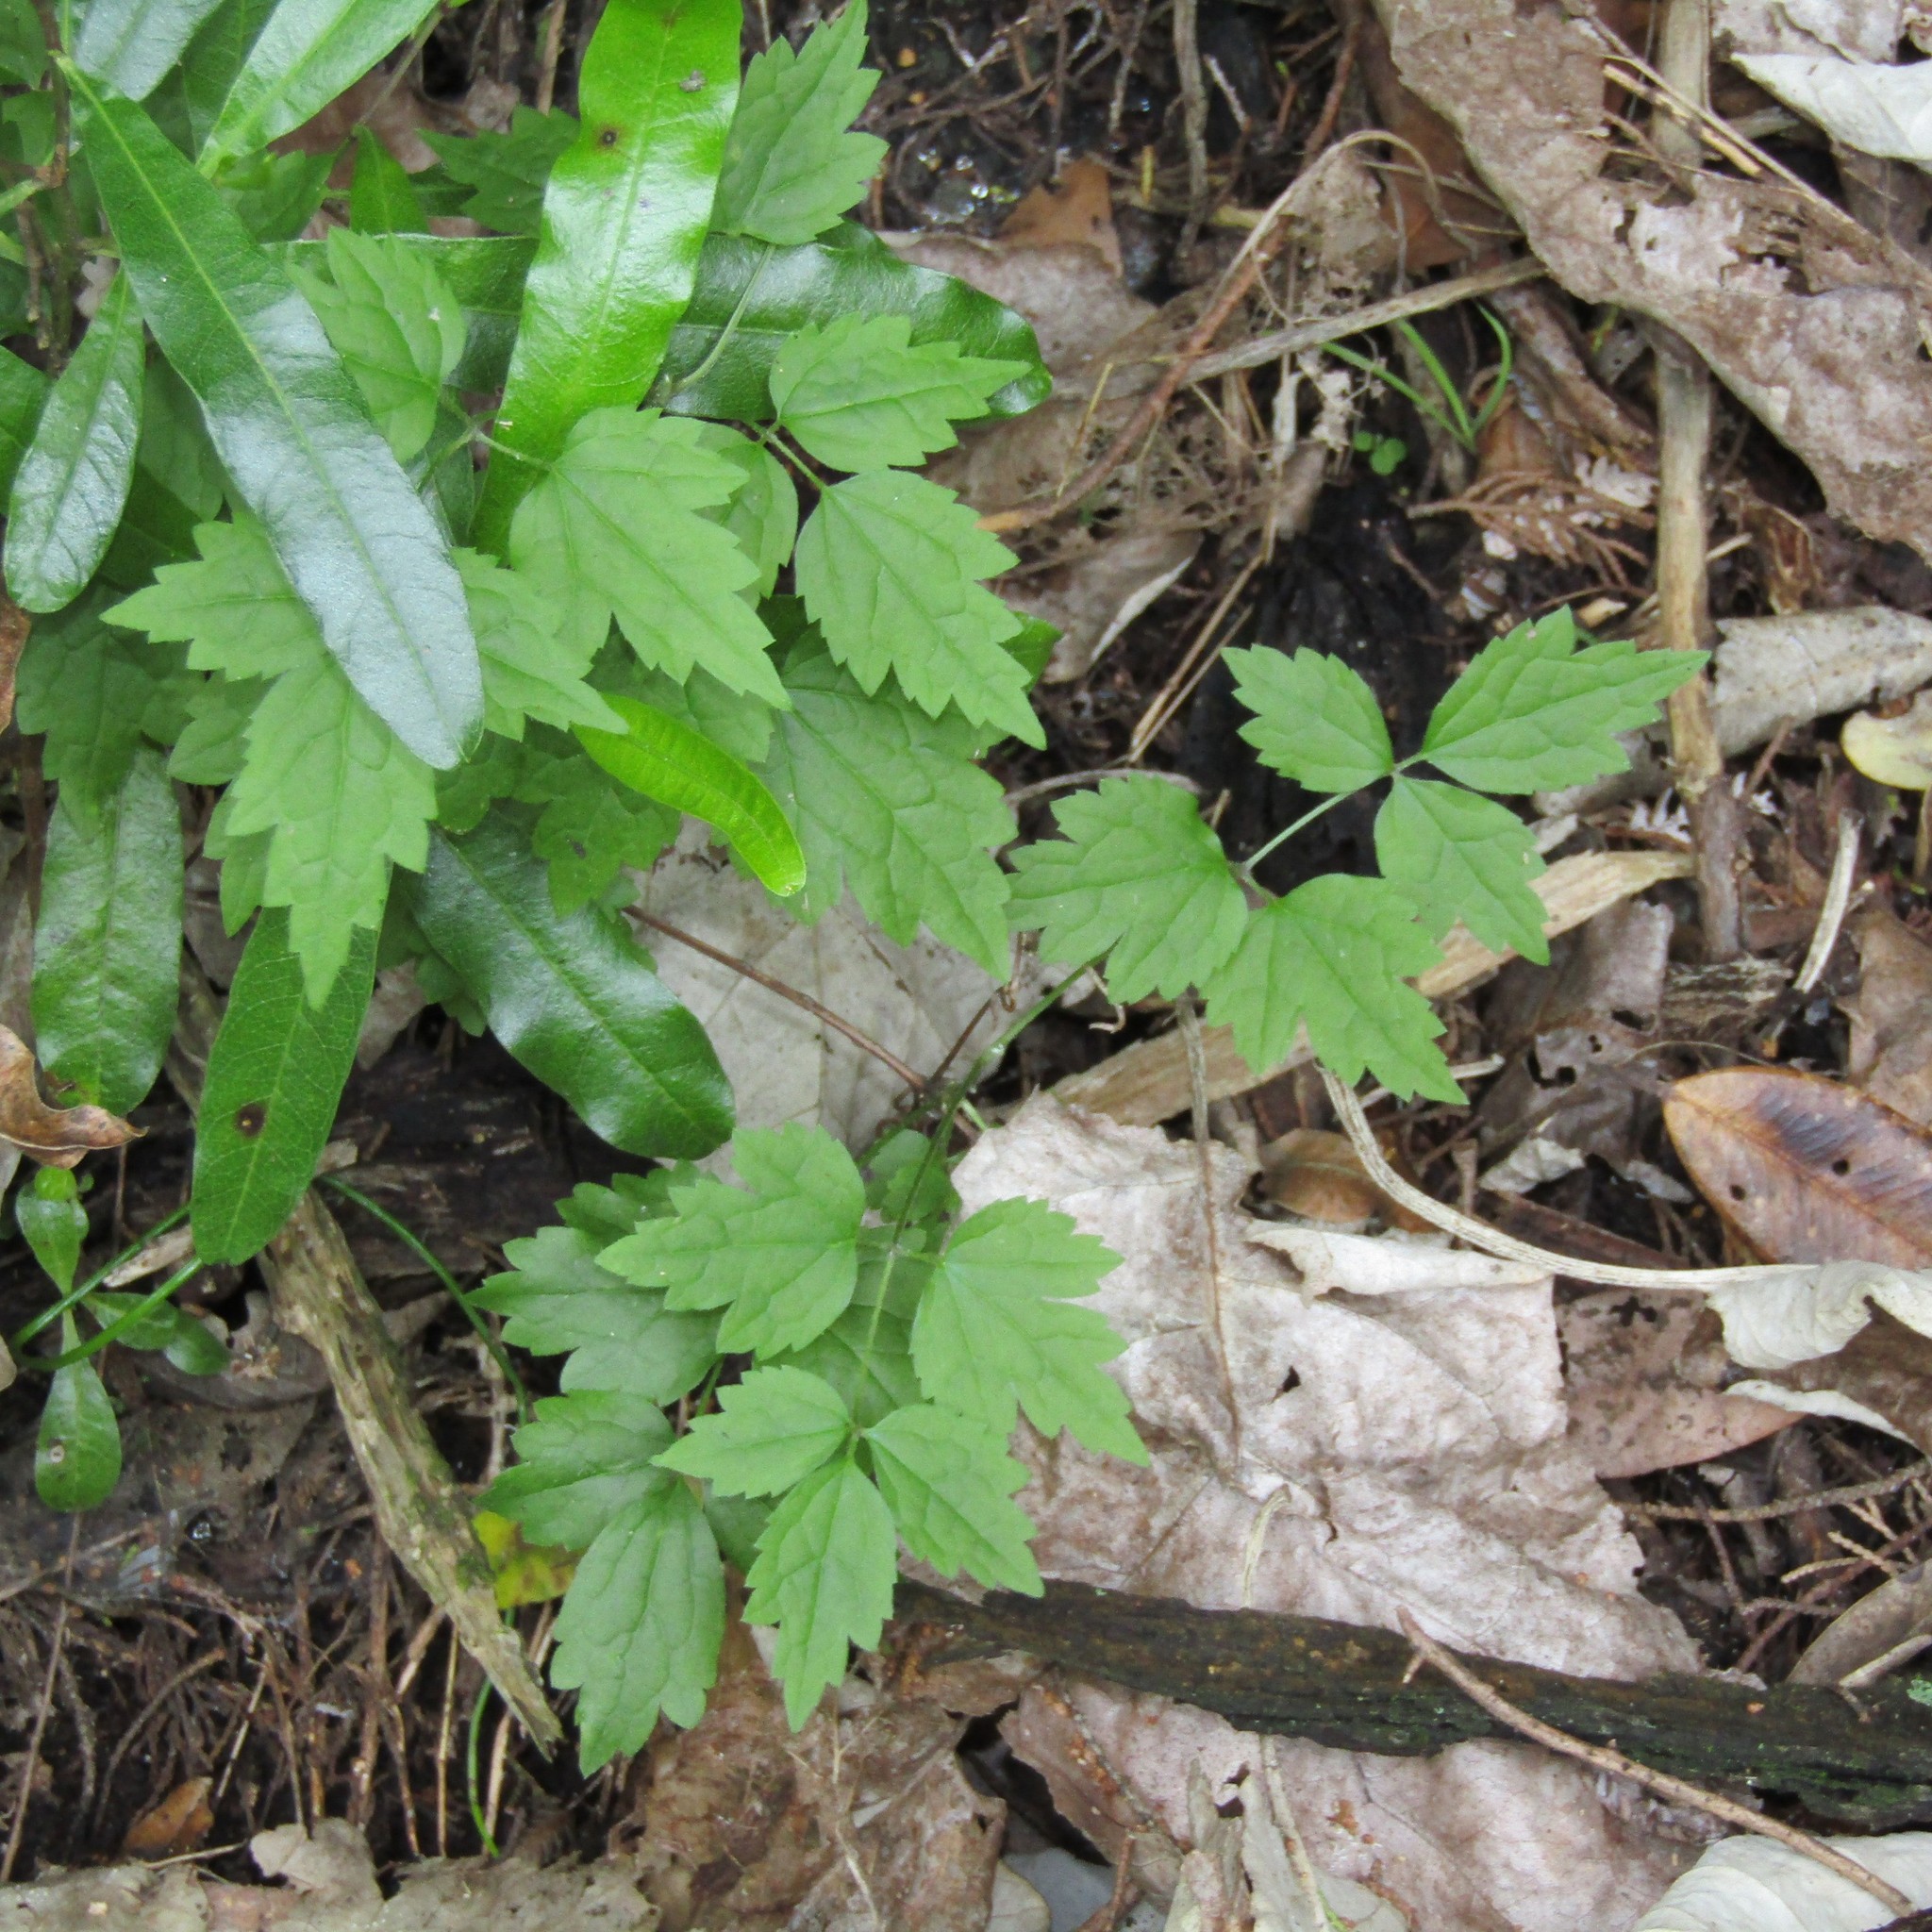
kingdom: Plantae
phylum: Tracheophyta
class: Magnoliopsida
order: Ranunculales
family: Ranunculaceae
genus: Clematis
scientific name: Clematis vitalba
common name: Evergreen clematis
